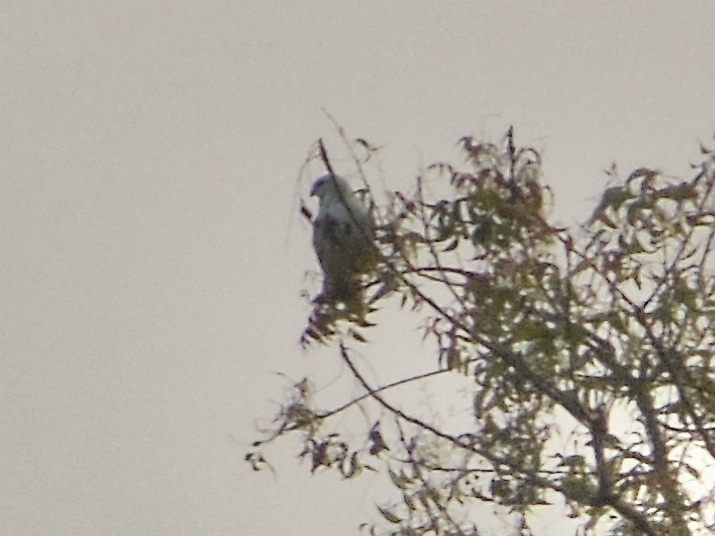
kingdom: Animalia
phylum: Chordata
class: Aves
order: Accipitriformes
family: Accipitridae
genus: Elanus
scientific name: Elanus caeruleus
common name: Black-winged kite
